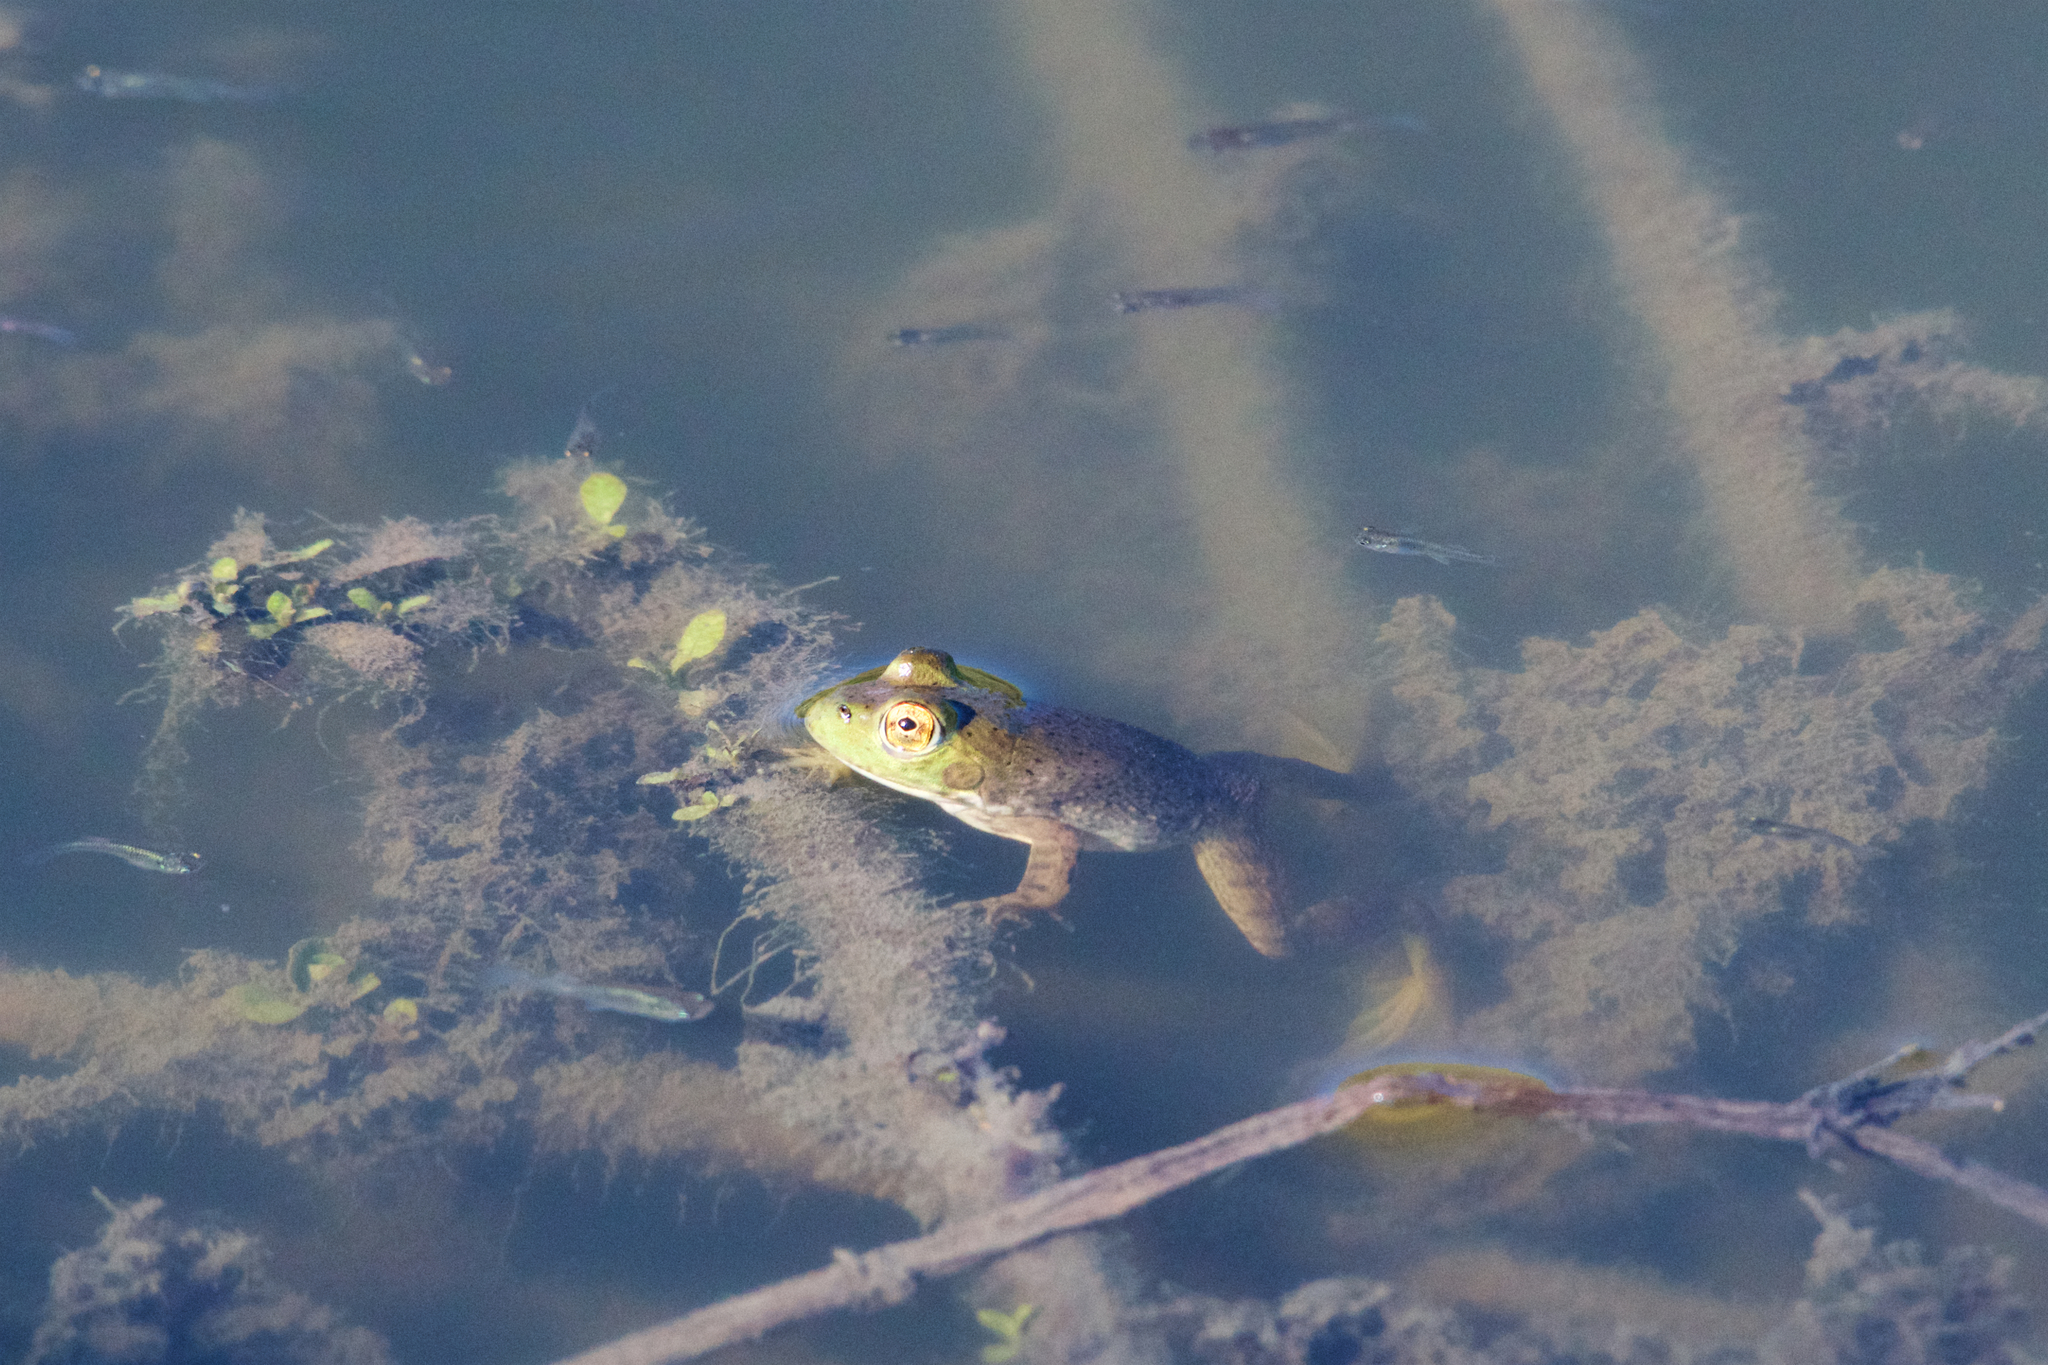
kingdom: Animalia
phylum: Chordata
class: Amphibia
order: Anura
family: Ranidae
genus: Lithobates
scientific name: Lithobates catesbeianus
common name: American bullfrog
